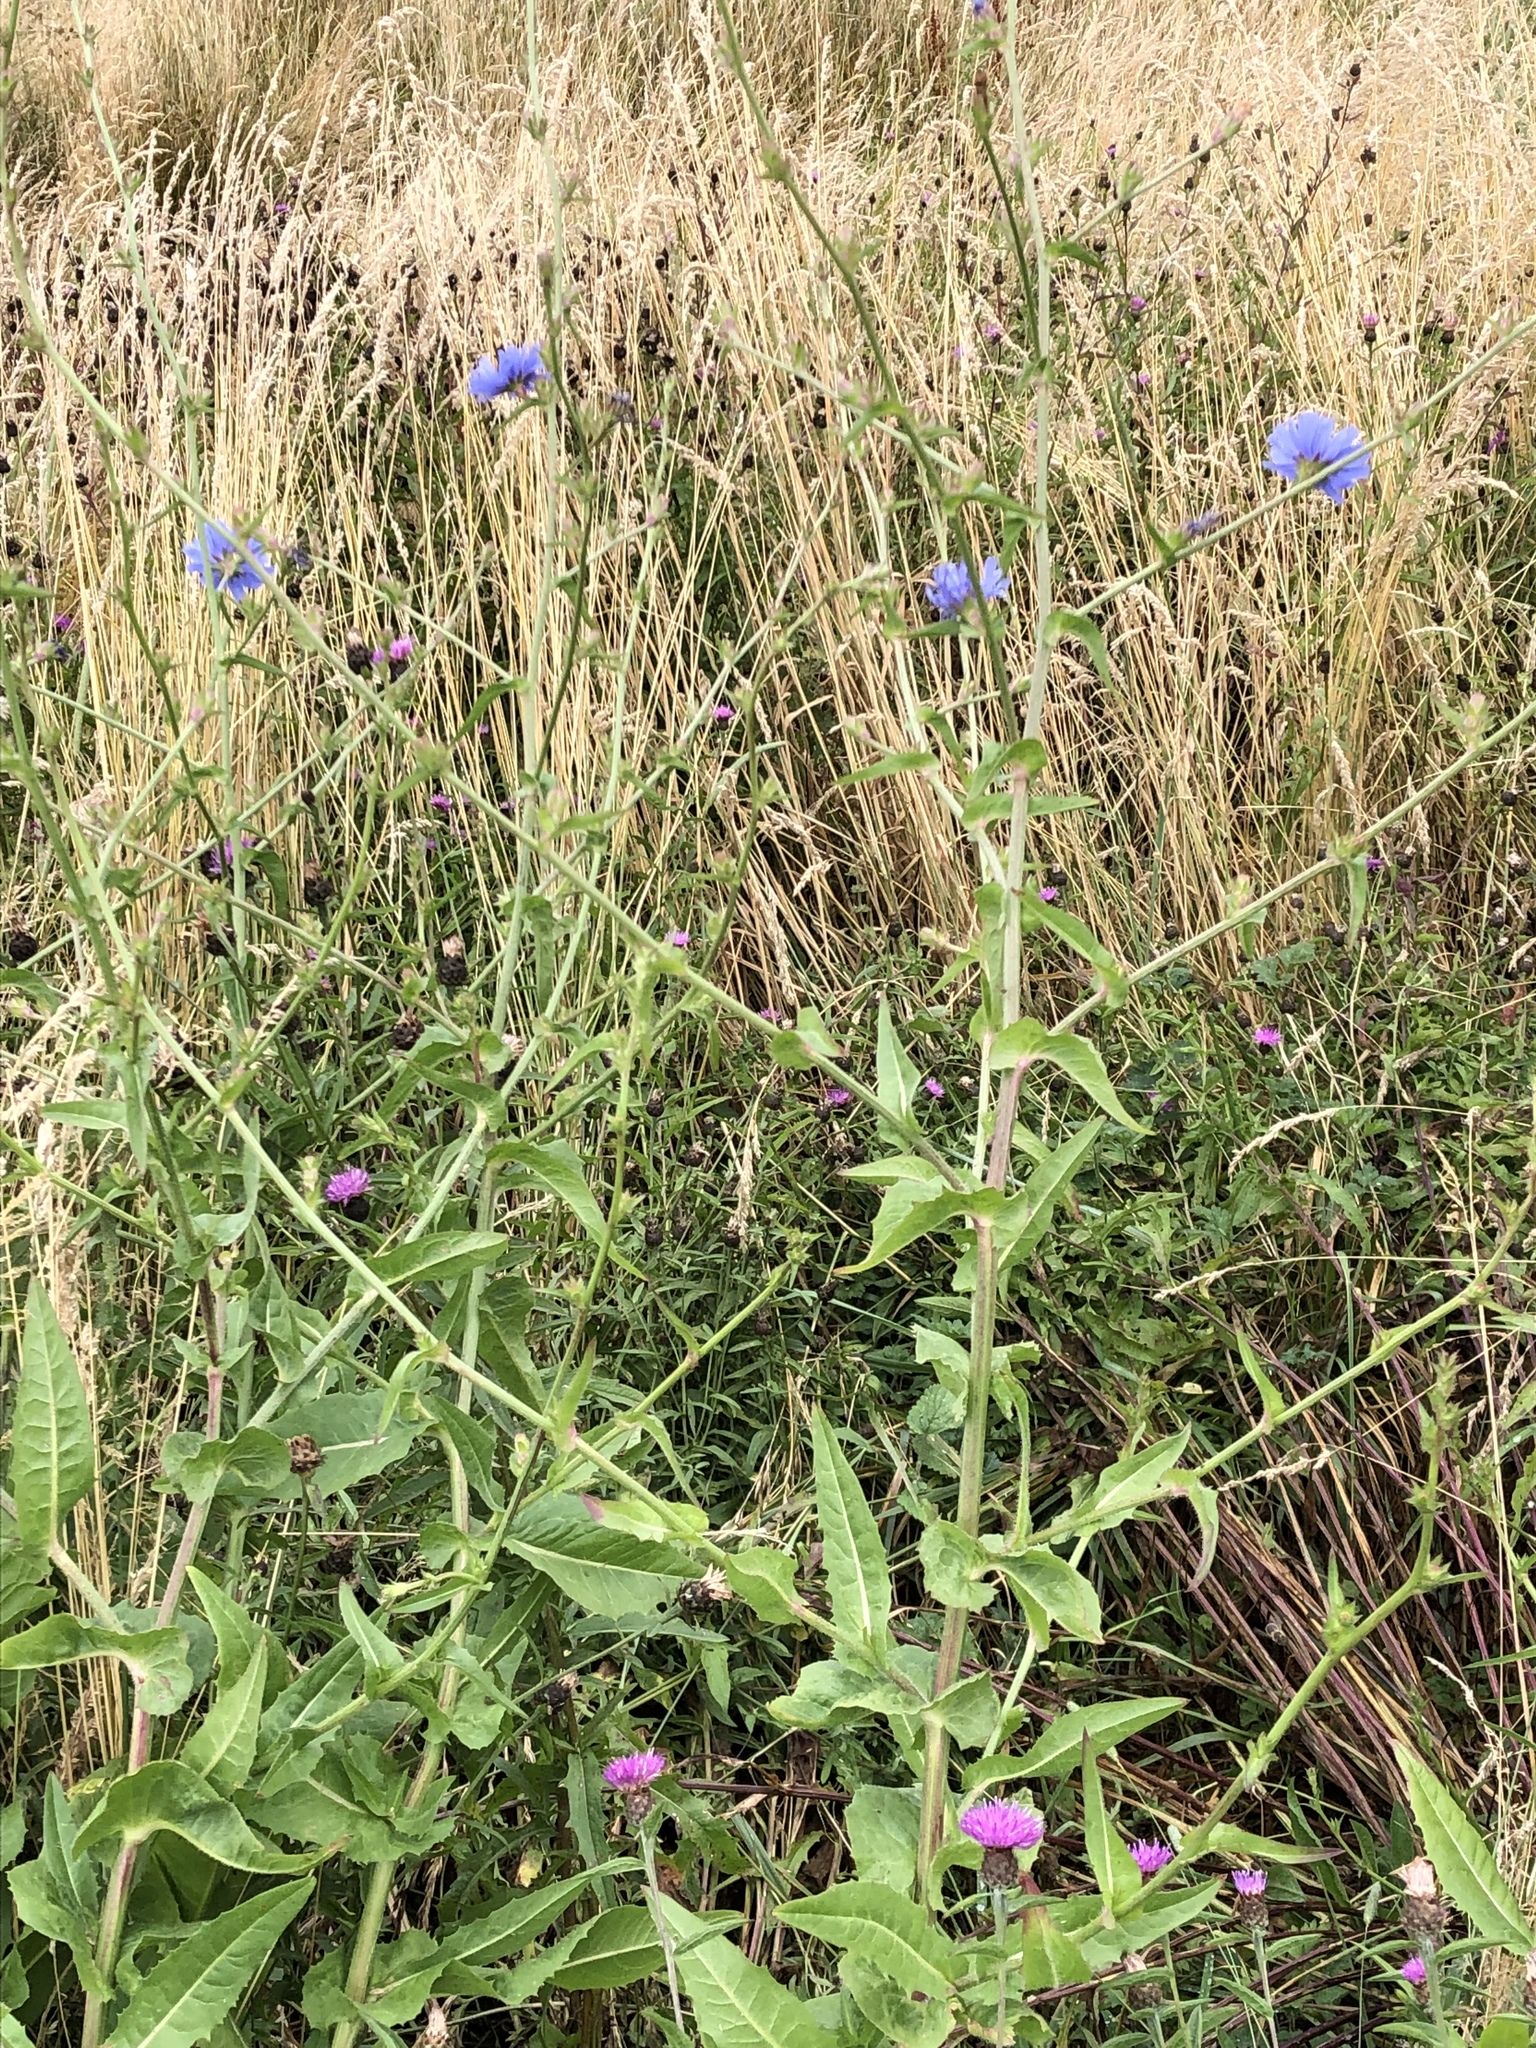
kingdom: Plantae
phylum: Tracheophyta
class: Magnoliopsida
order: Asterales
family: Asteraceae
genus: Cichorium
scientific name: Cichorium intybus
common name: Chicory
